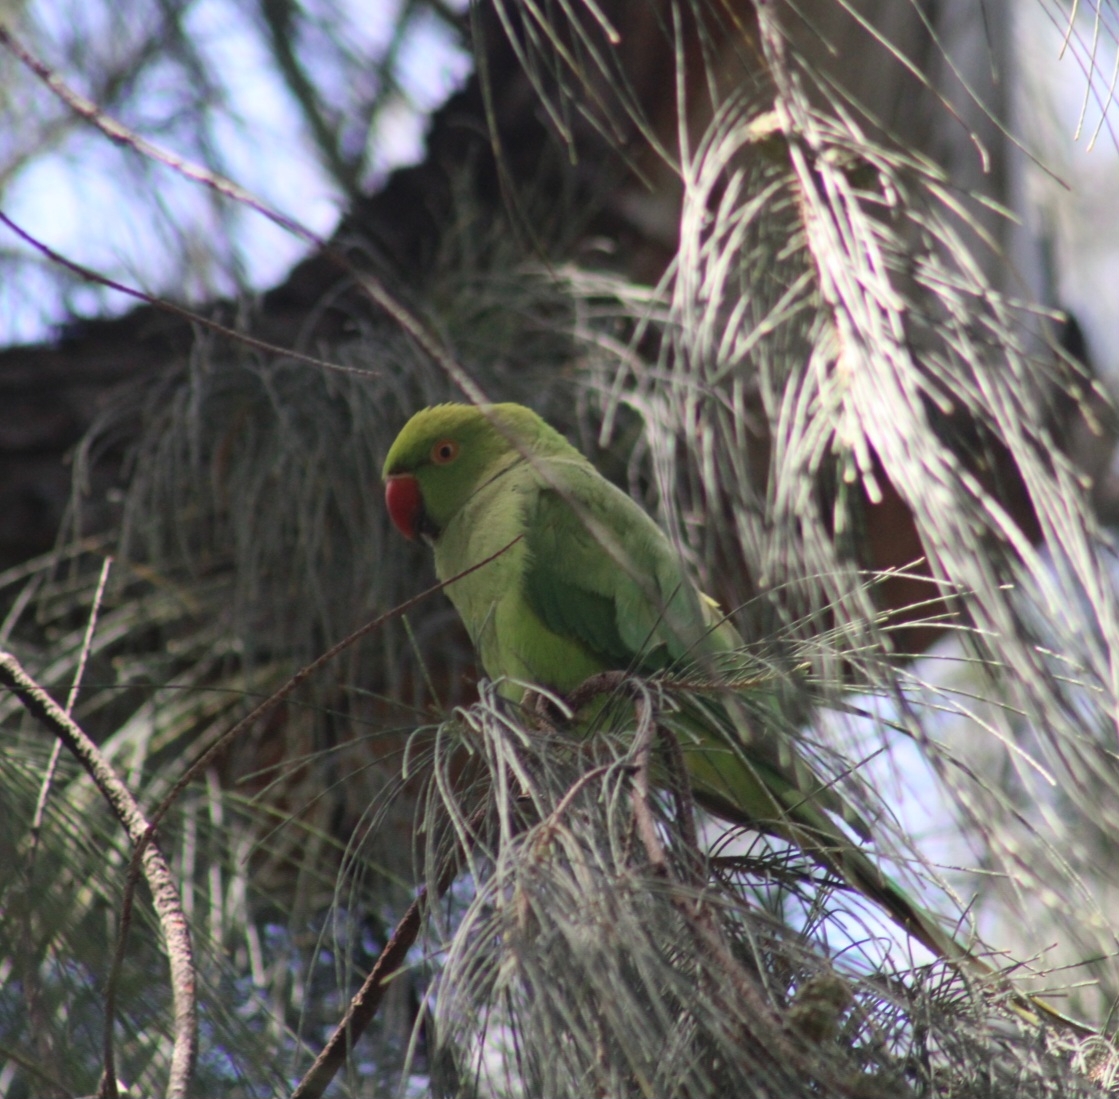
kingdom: Animalia
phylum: Chordata
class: Aves
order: Psittaciformes
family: Psittacidae
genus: Psittacula
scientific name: Psittacula krameri
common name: Rose-ringed parakeet
